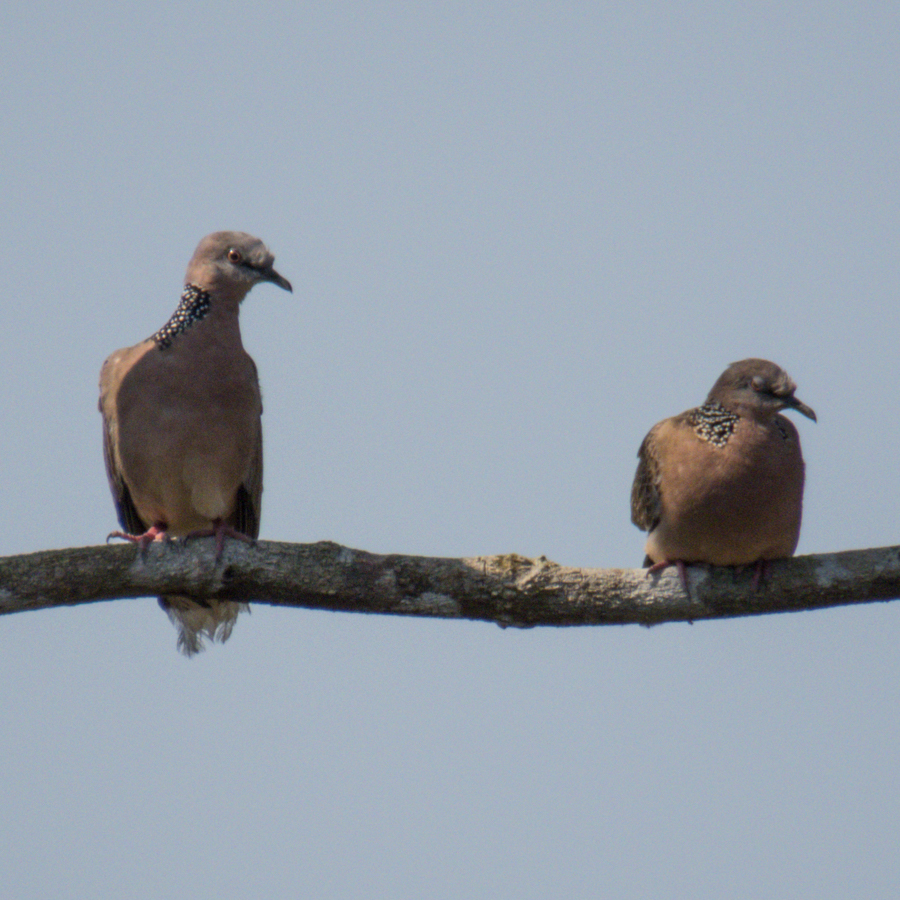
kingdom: Animalia
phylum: Chordata
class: Aves
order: Columbiformes
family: Columbidae
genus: Spilopelia
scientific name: Spilopelia chinensis
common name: Spotted dove
